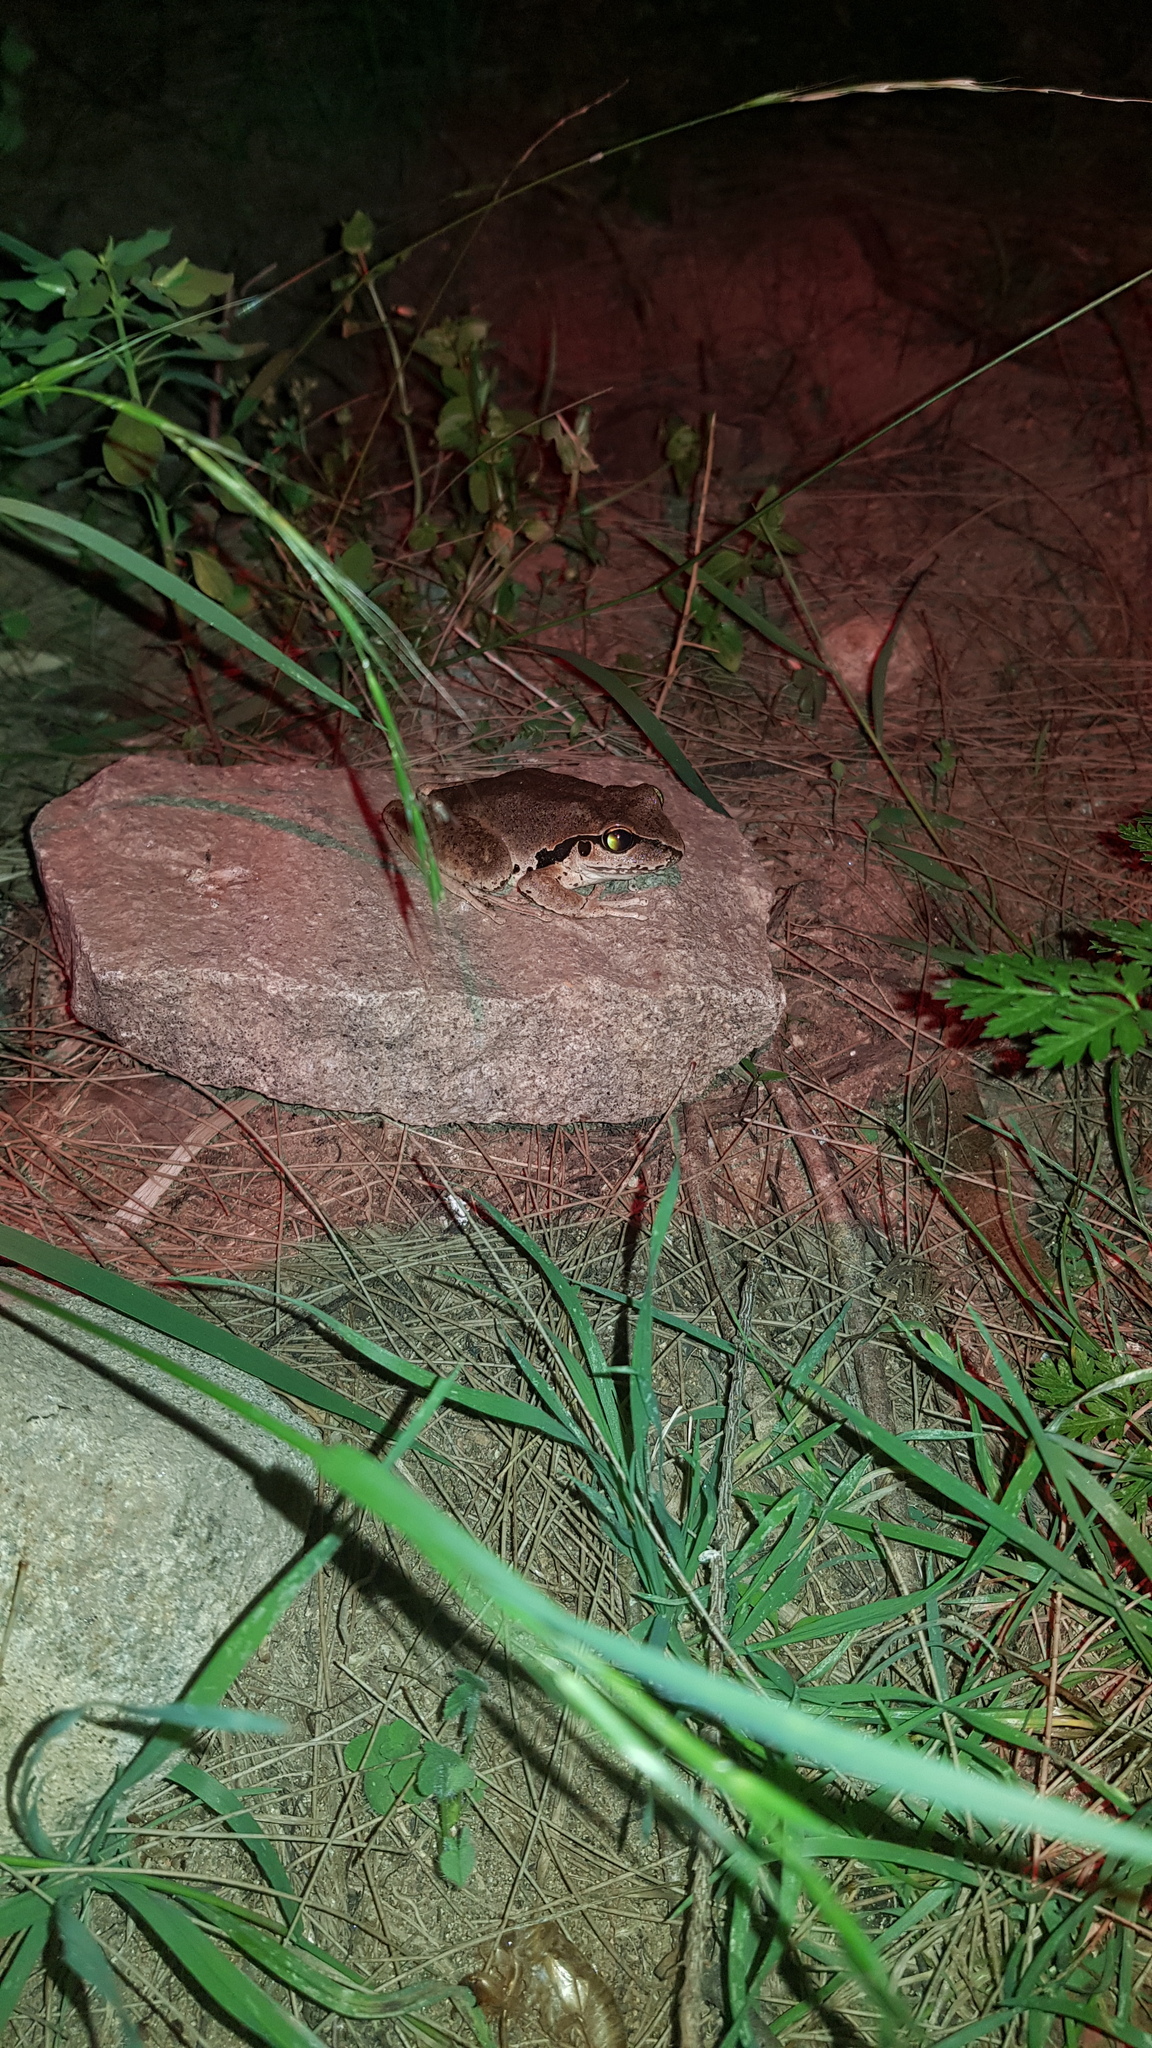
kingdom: Animalia
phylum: Chordata
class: Amphibia
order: Anura
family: Pelodryadidae
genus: Ranoidea
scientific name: Ranoidea lesueurii
